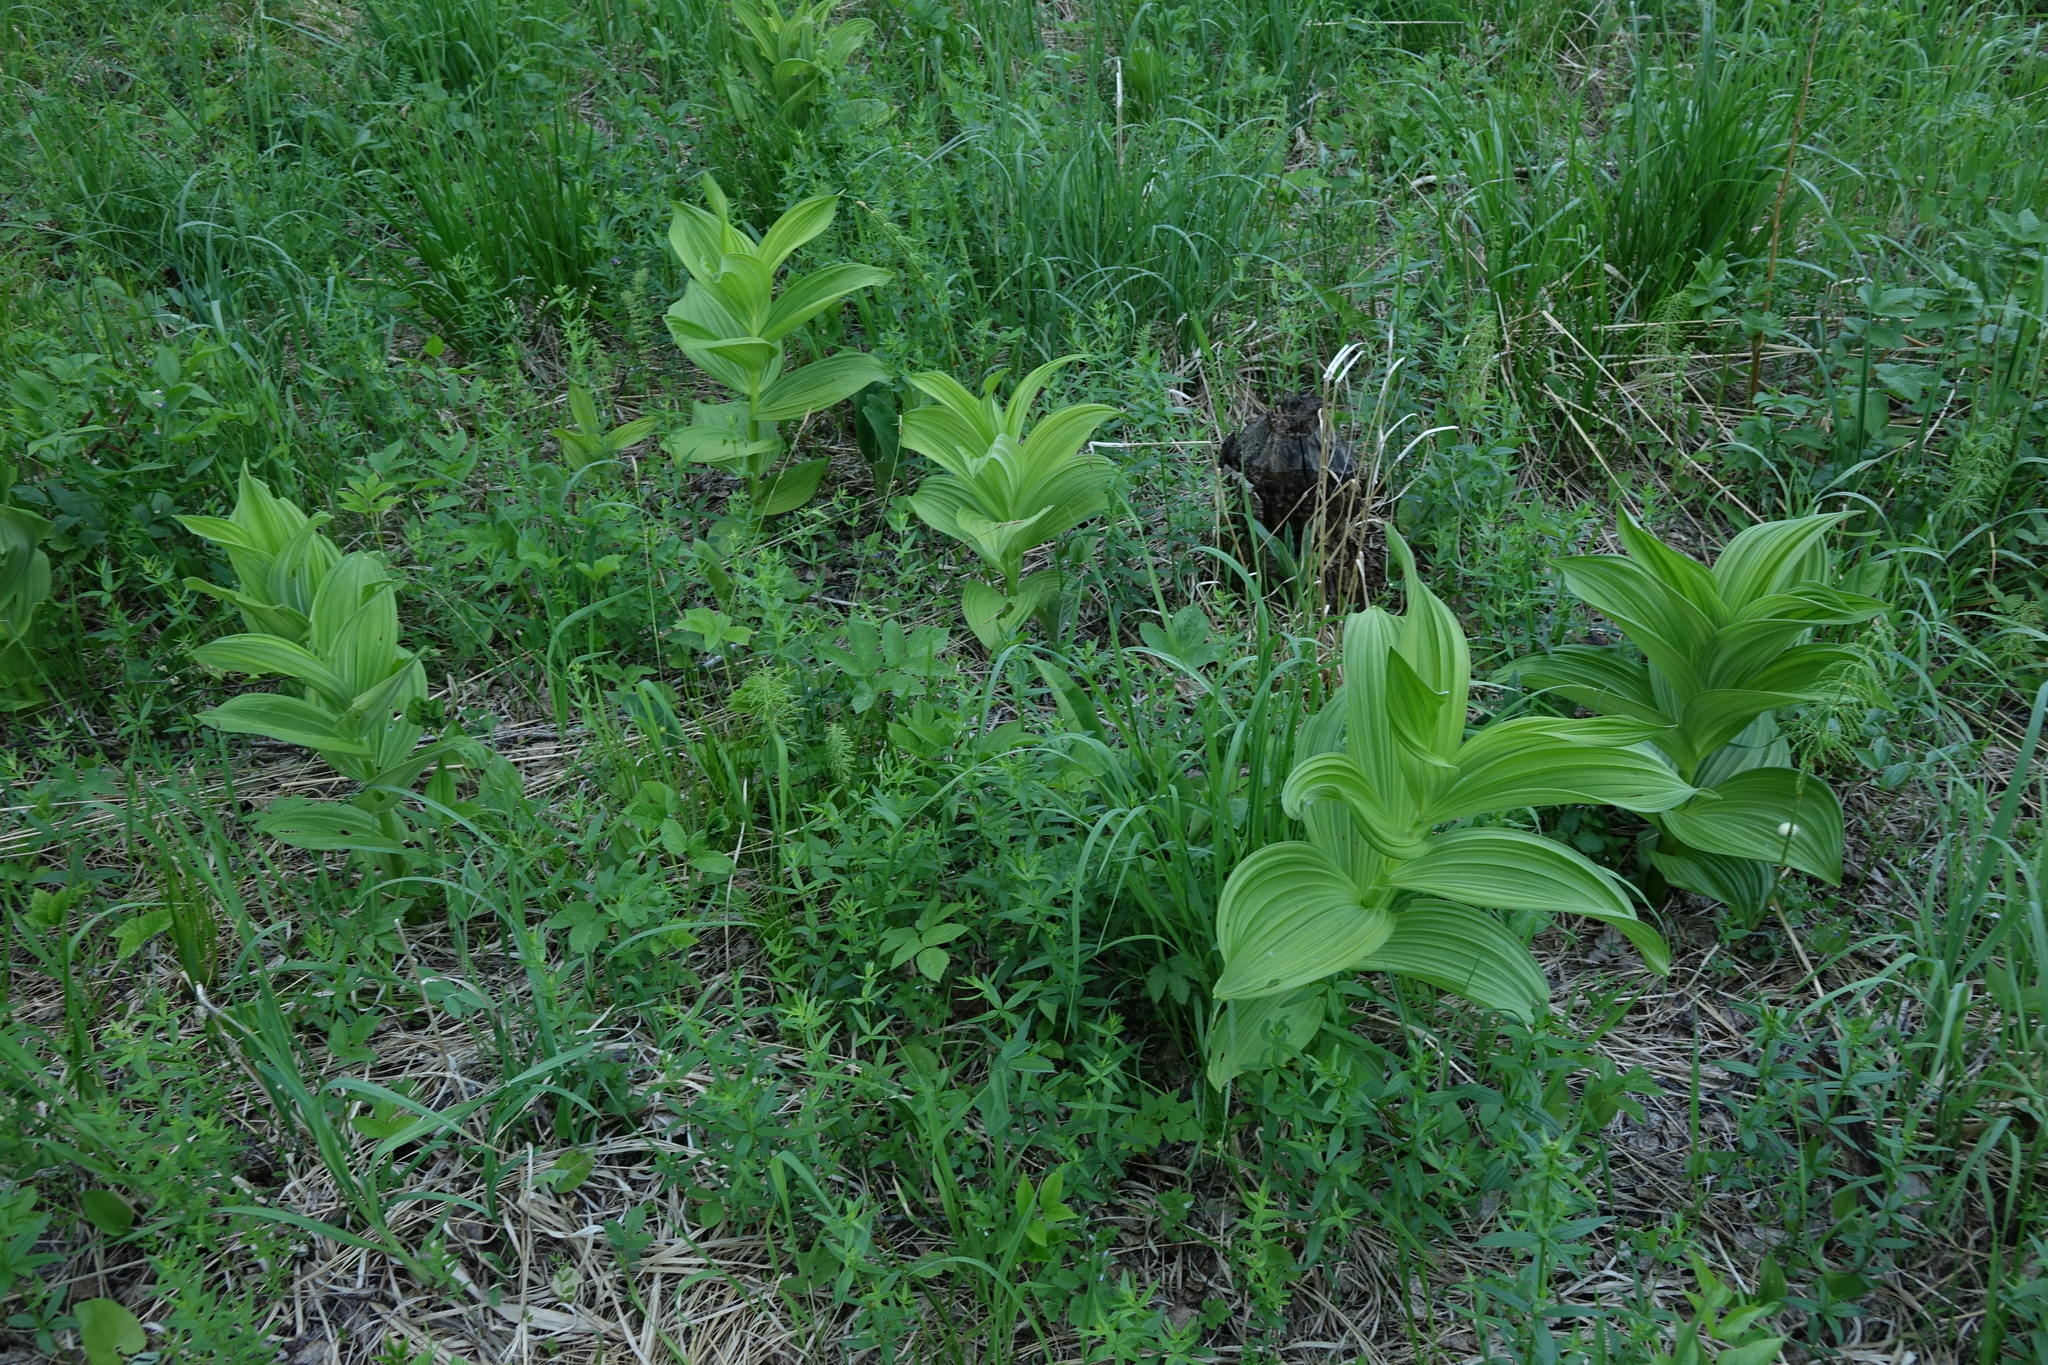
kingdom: Plantae
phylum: Tracheophyta
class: Liliopsida
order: Liliales
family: Melanthiaceae
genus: Veratrum
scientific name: Veratrum lobelianum
